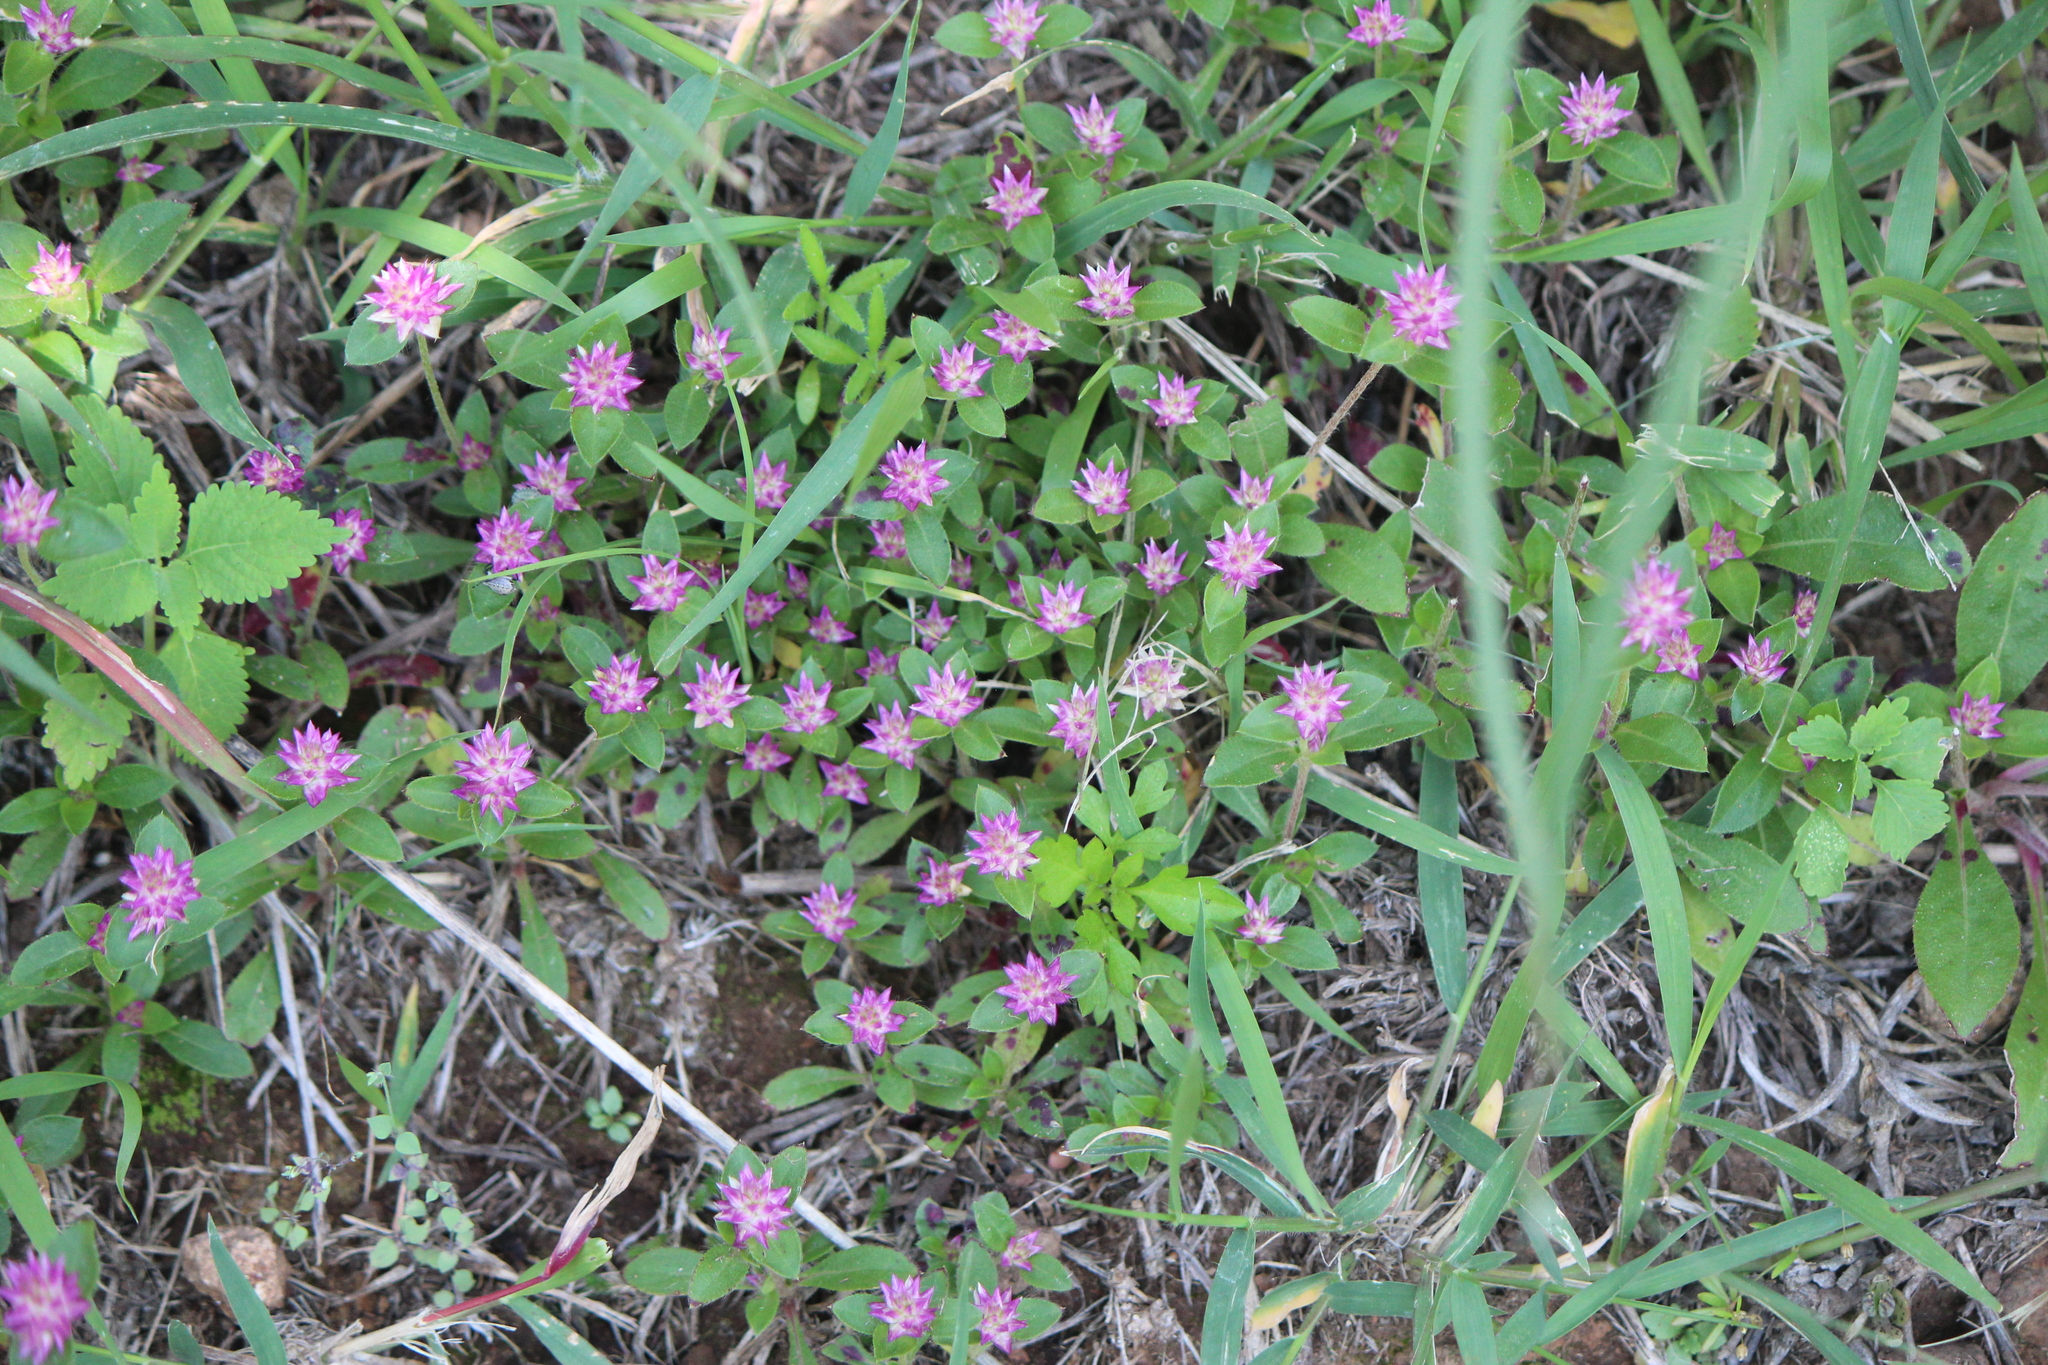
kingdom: Plantae
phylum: Tracheophyta
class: Magnoliopsida
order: Caryophyllales
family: Amaranthaceae
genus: Gomphrena
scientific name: Gomphrena serrata
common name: Arrasa con todo
